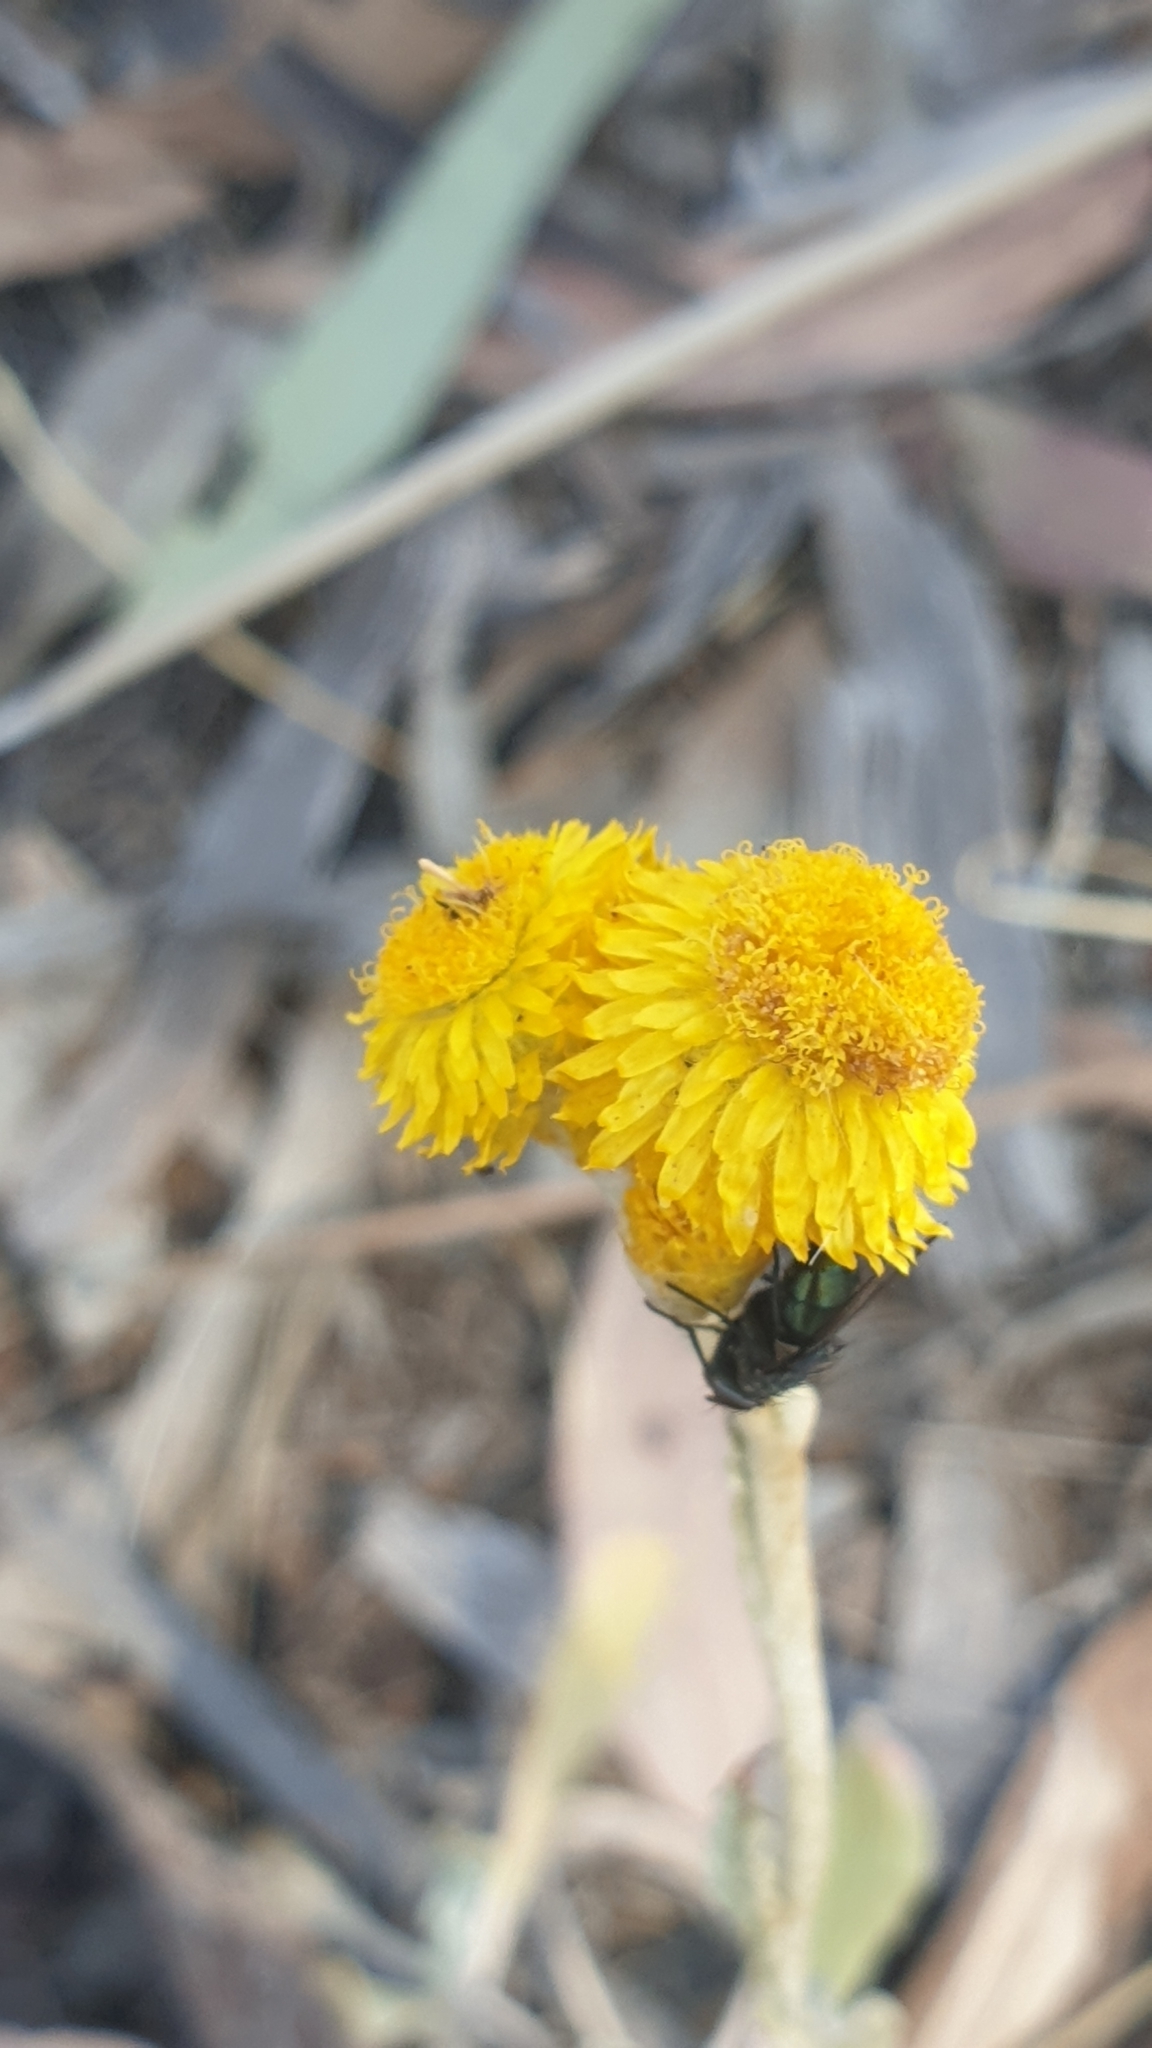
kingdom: Plantae
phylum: Tracheophyta
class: Magnoliopsida
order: Asterales
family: Asteraceae
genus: Chrysocephalum
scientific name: Chrysocephalum apiculatum
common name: Common everlasting
